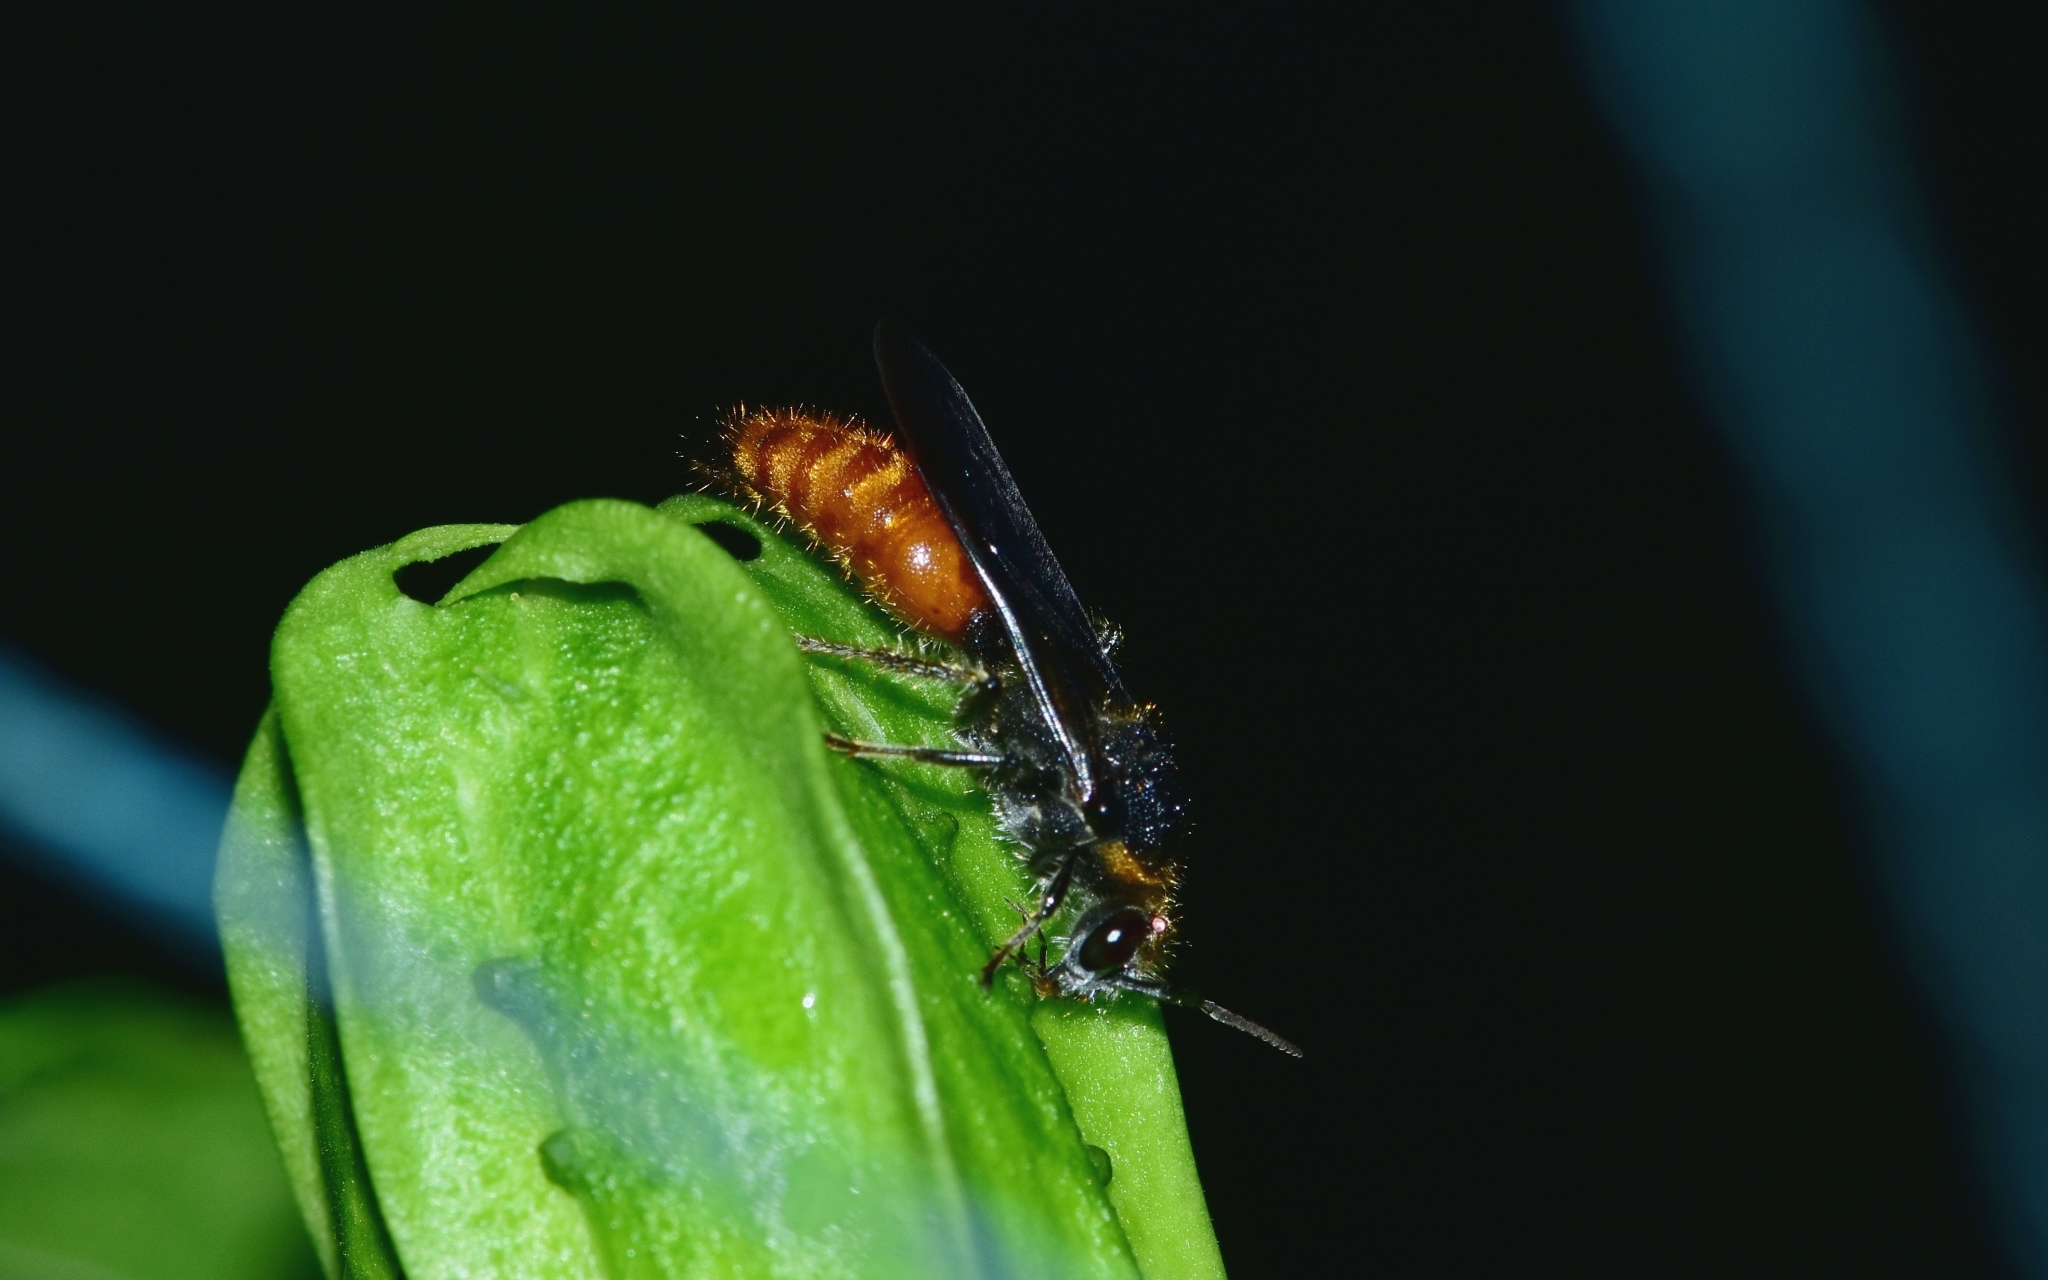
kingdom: Animalia
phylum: Arthropoda
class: Insecta
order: Hymenoptera
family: Mutillidae
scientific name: Mutillidae
